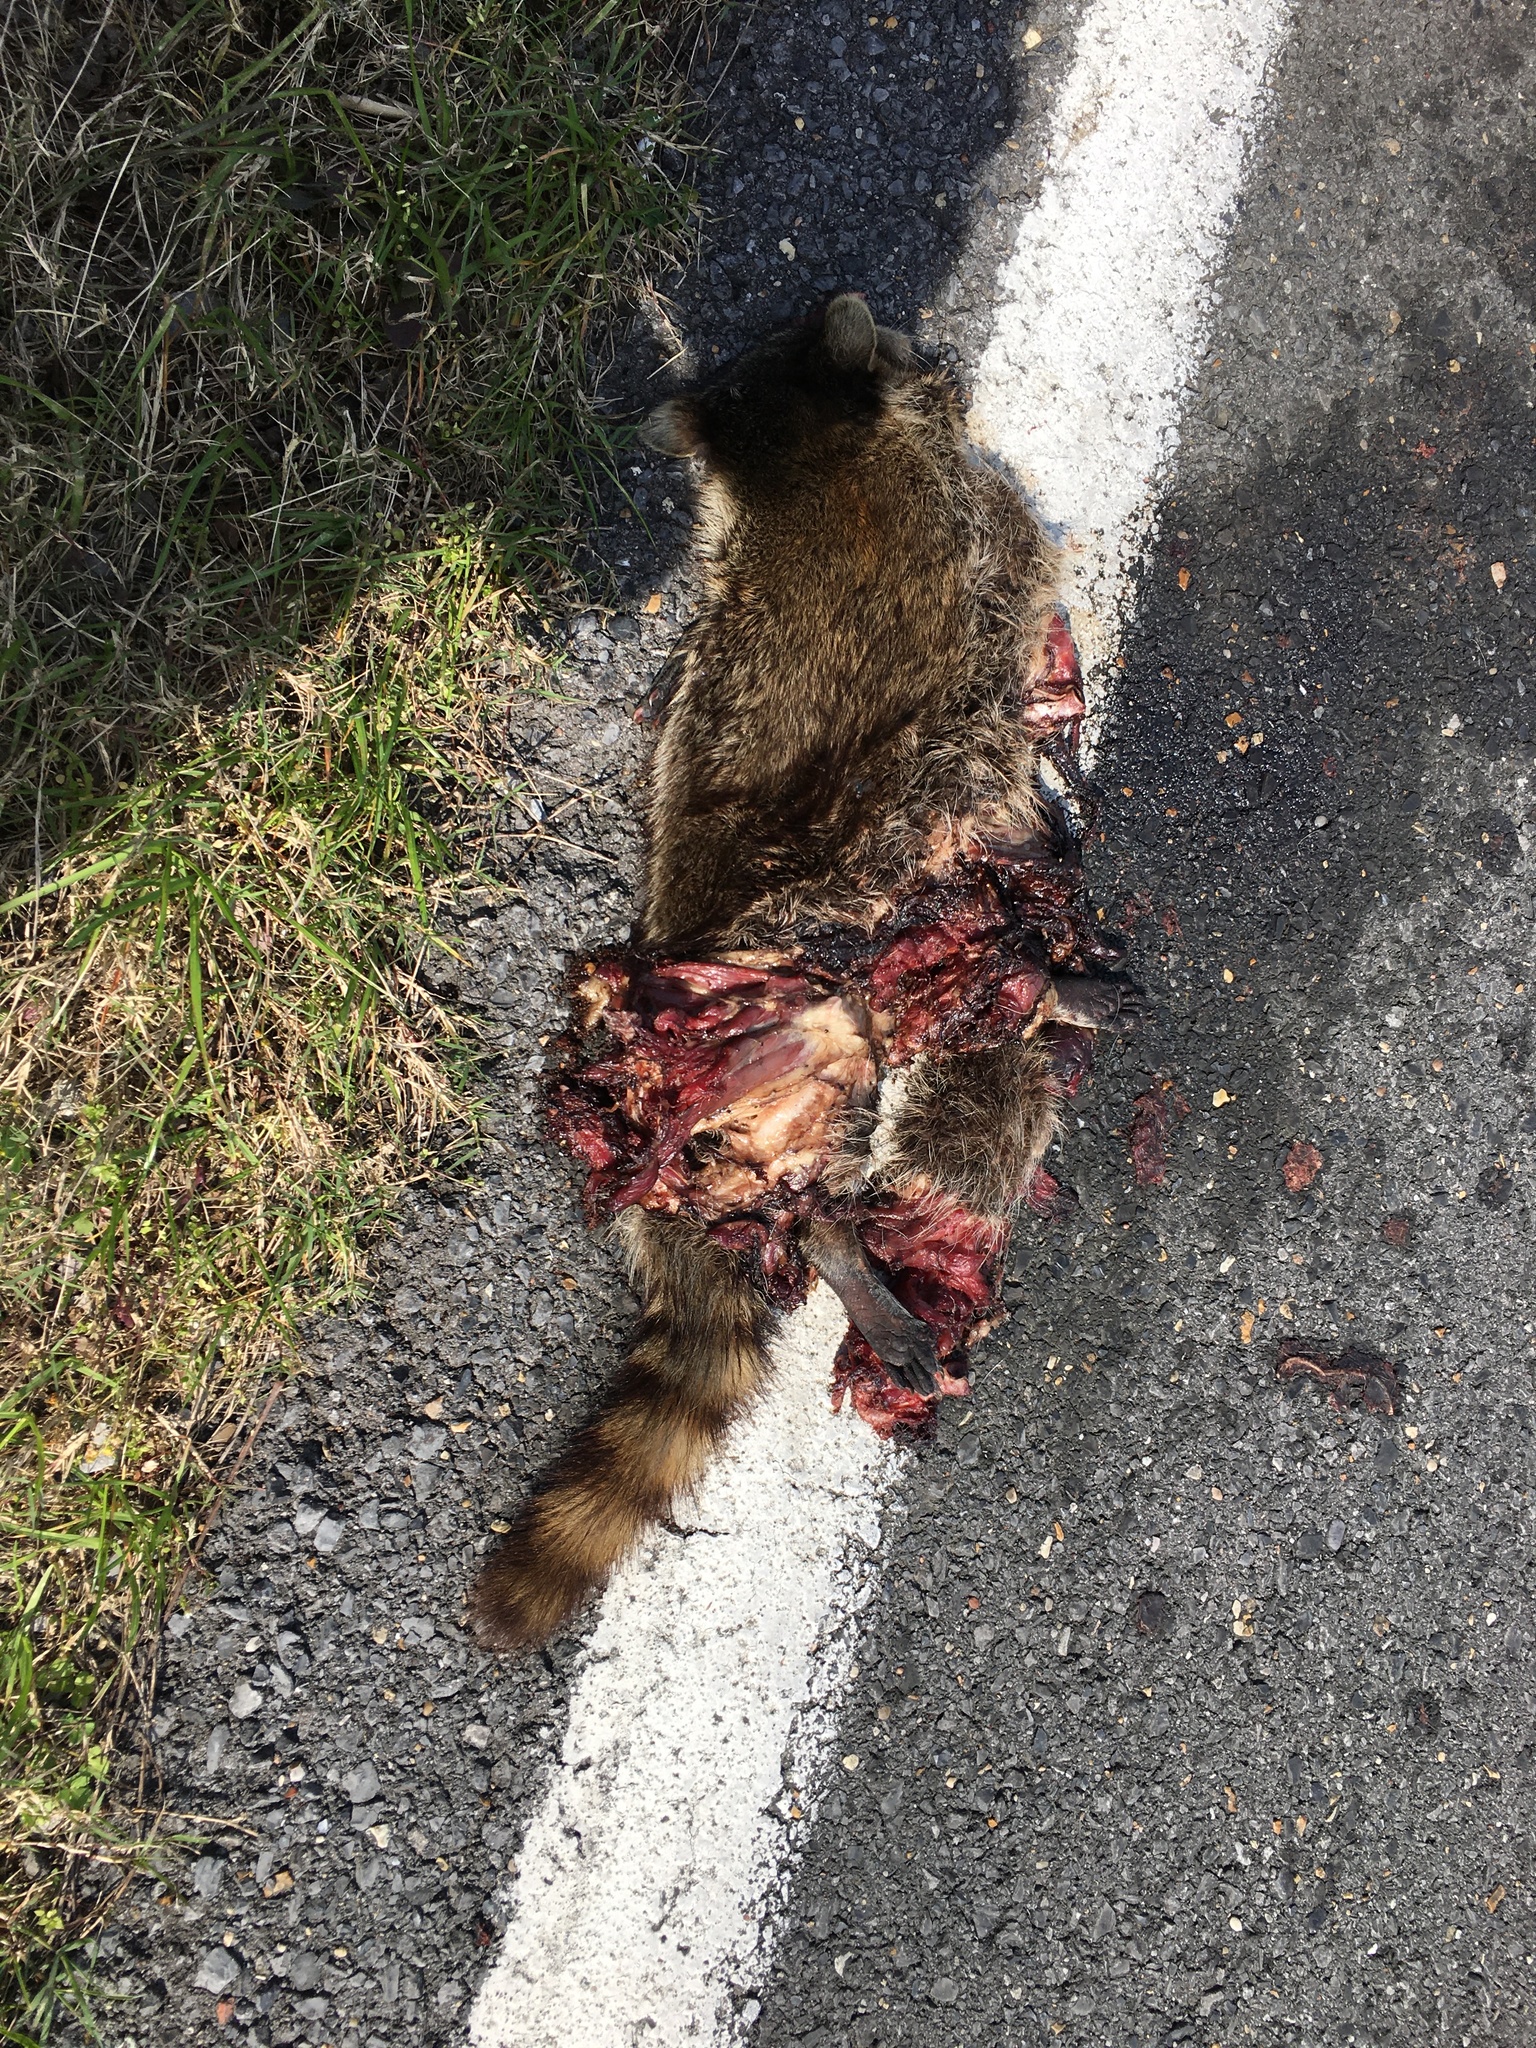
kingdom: Animalia
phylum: Chordata
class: Mammalia
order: Carnivora
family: Procyonidae
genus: Procyon
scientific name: Procyon lotor
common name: Raccoon
